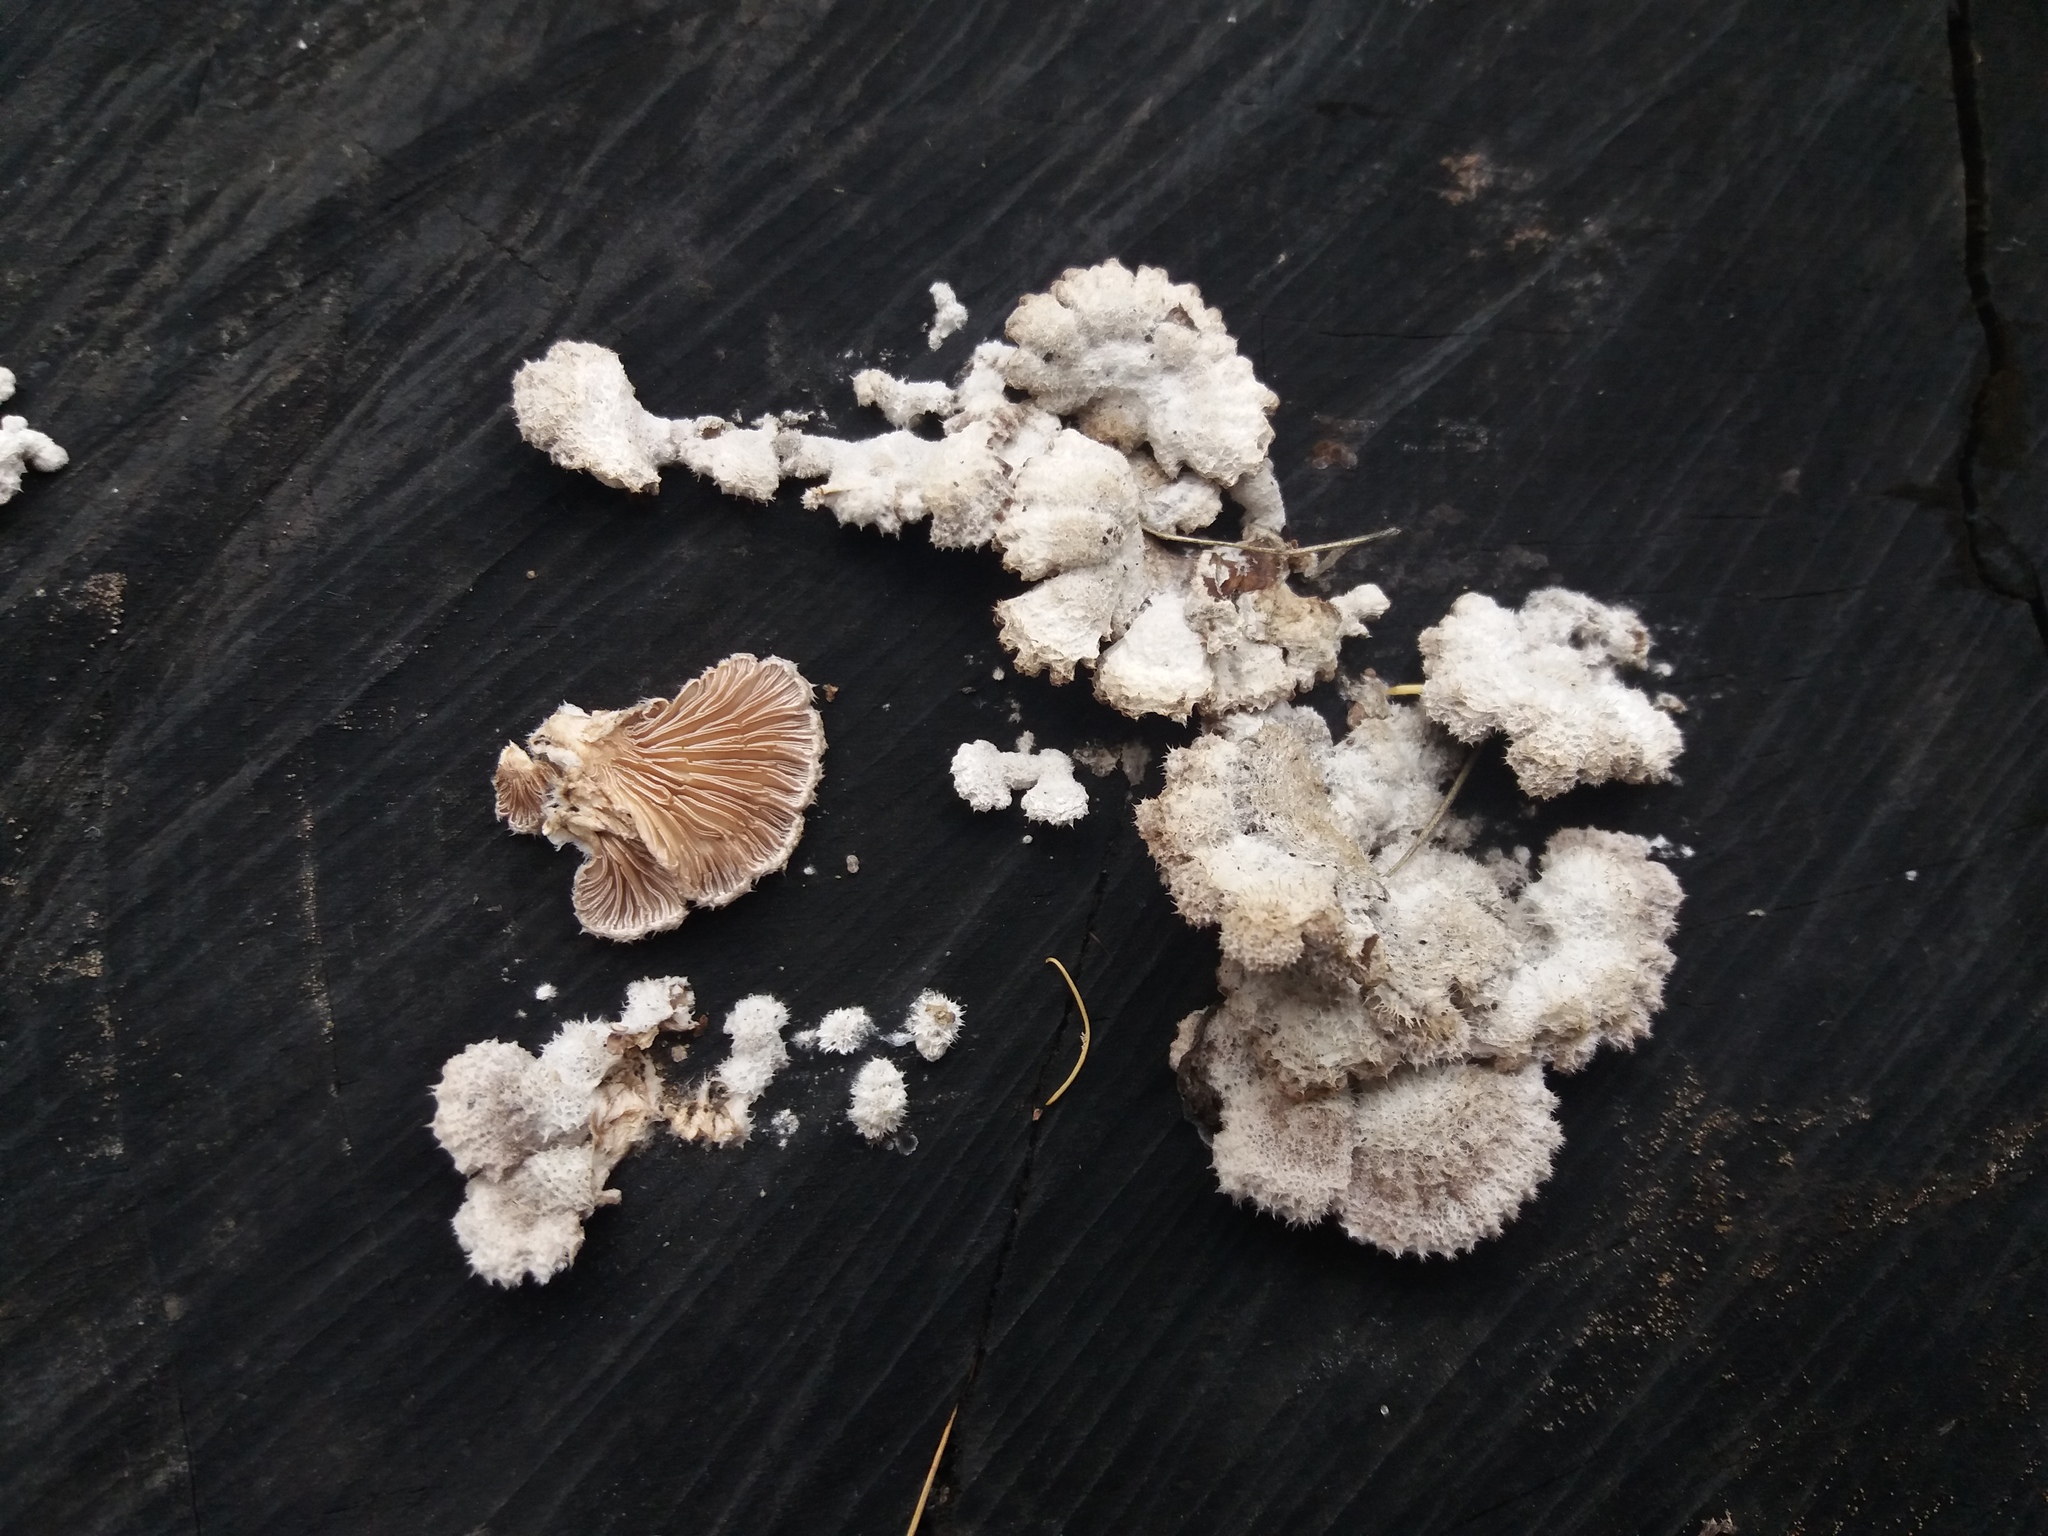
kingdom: Fungi
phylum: Basidiomycota
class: Agaricomycetes
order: Agaricales
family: Schizophyllaceae
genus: Schizophyllum
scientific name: Schizophyllum commune
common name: Common porecrust
